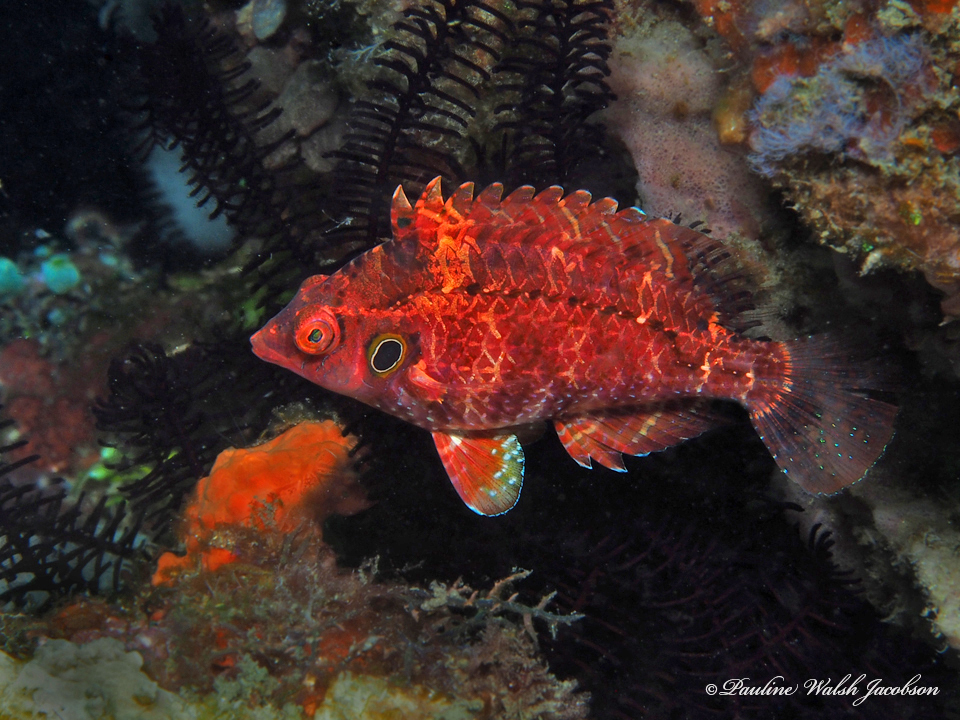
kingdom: Animalia
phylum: Chordata
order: Perciformes
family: Labridae
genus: Pteragogus
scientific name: Pteragogus turdus
